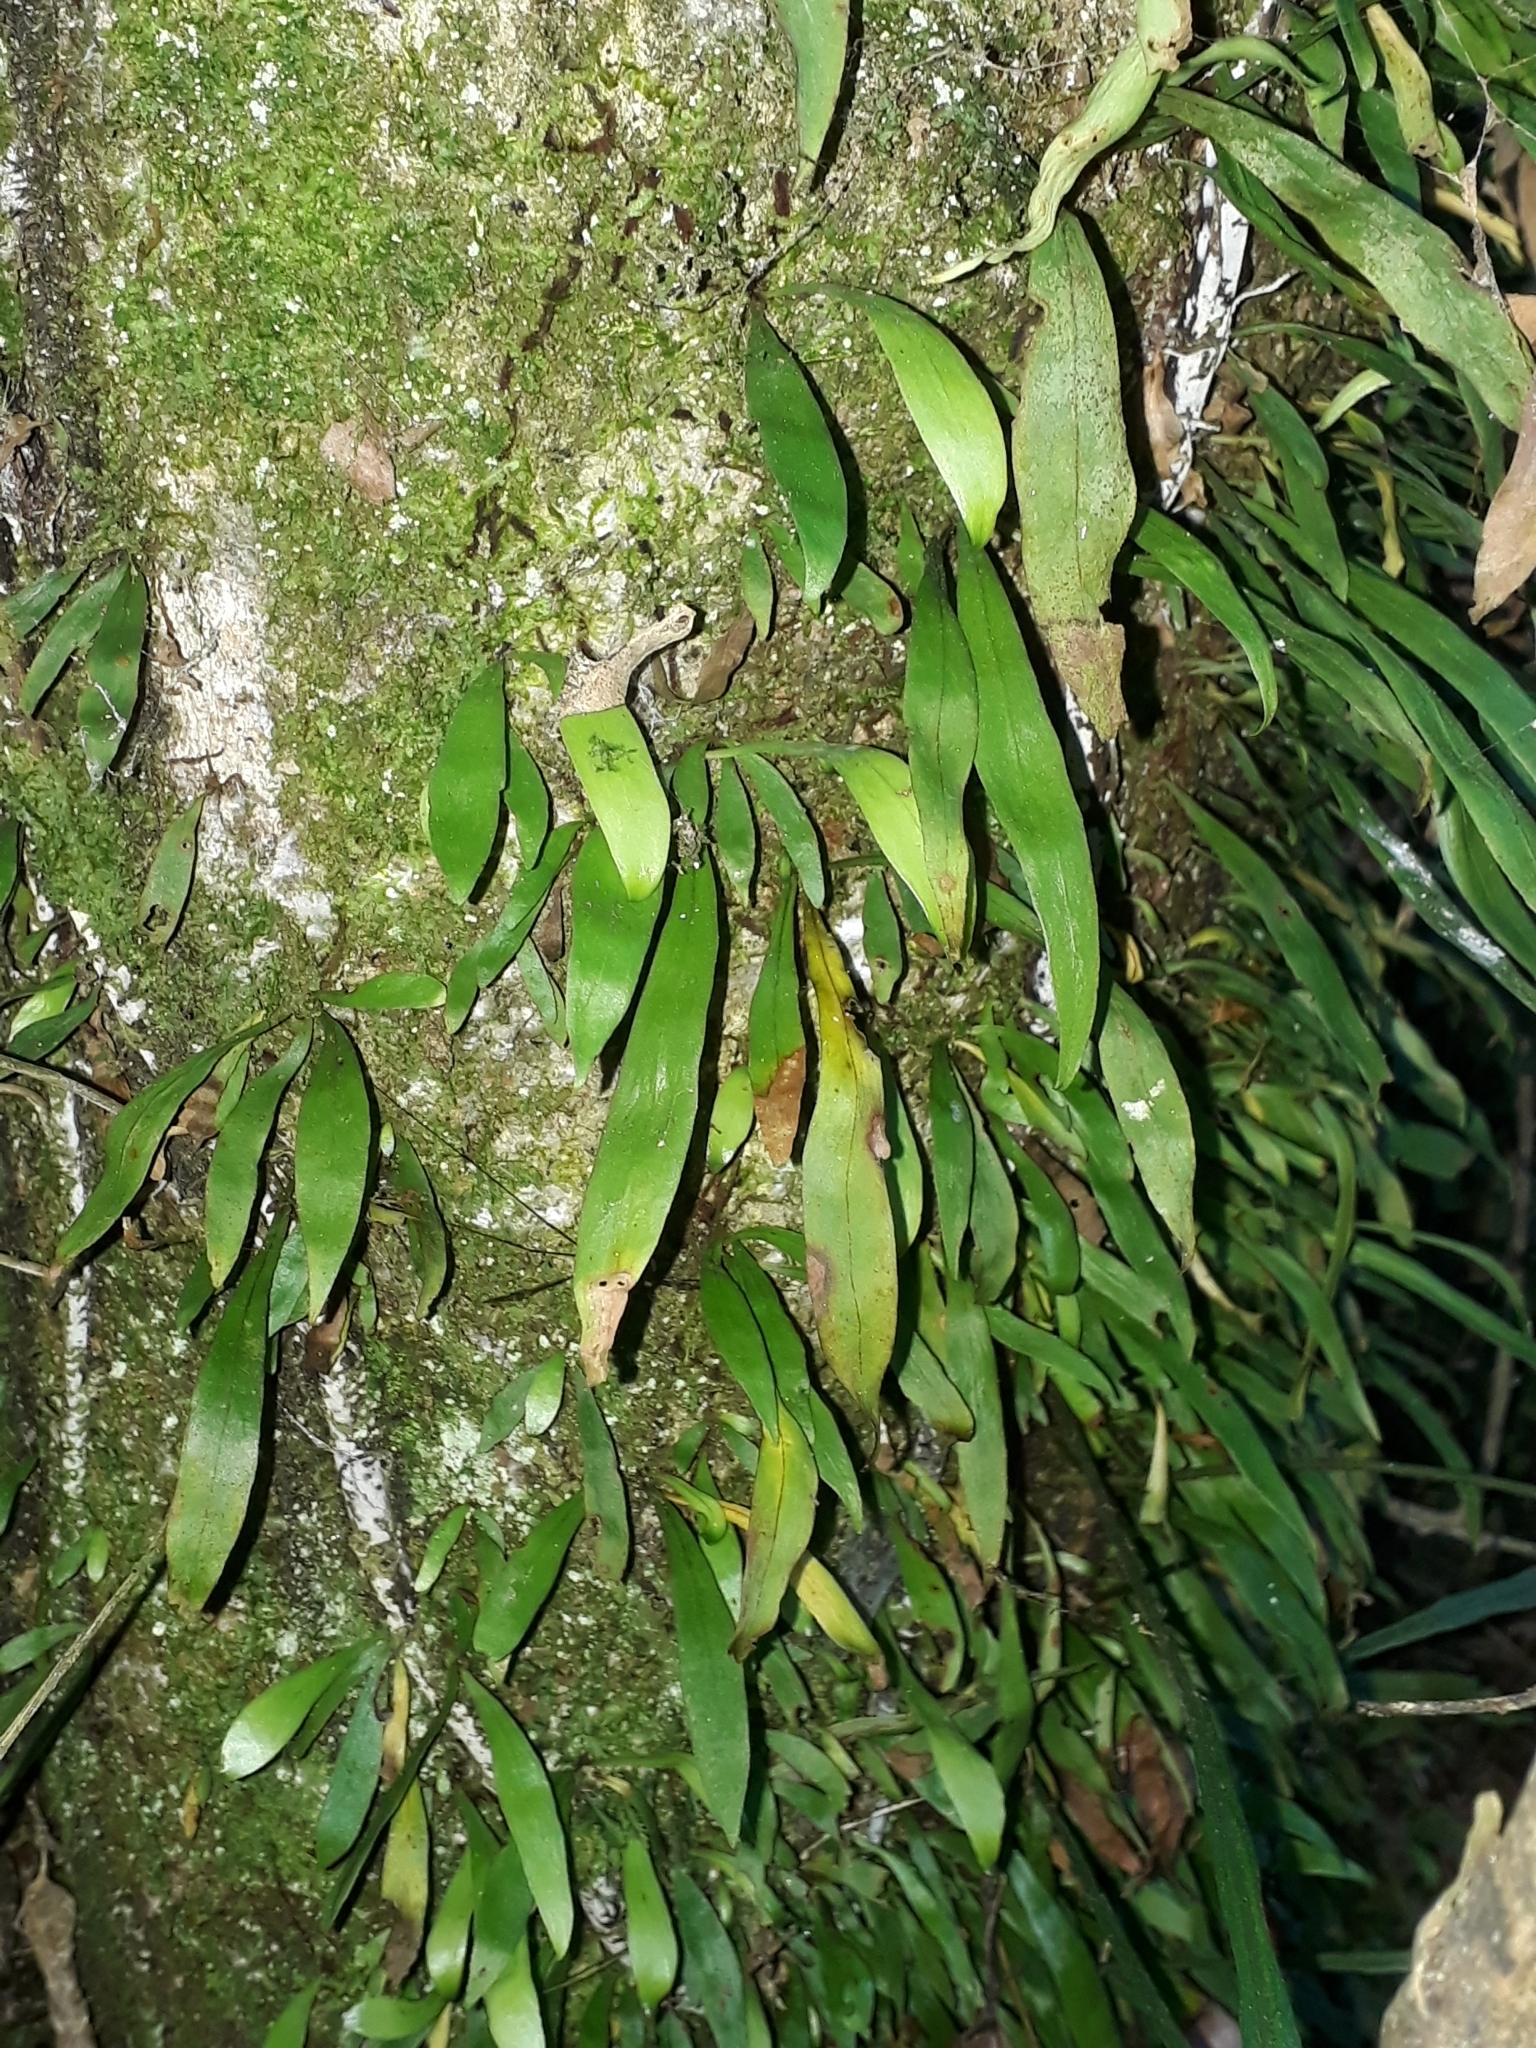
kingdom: Plantae
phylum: Tracheophyta
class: Polypodiopsida
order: Polypodiales
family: Polypodiaceae
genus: Loxogramme
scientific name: Loxogramme dictyopteris
